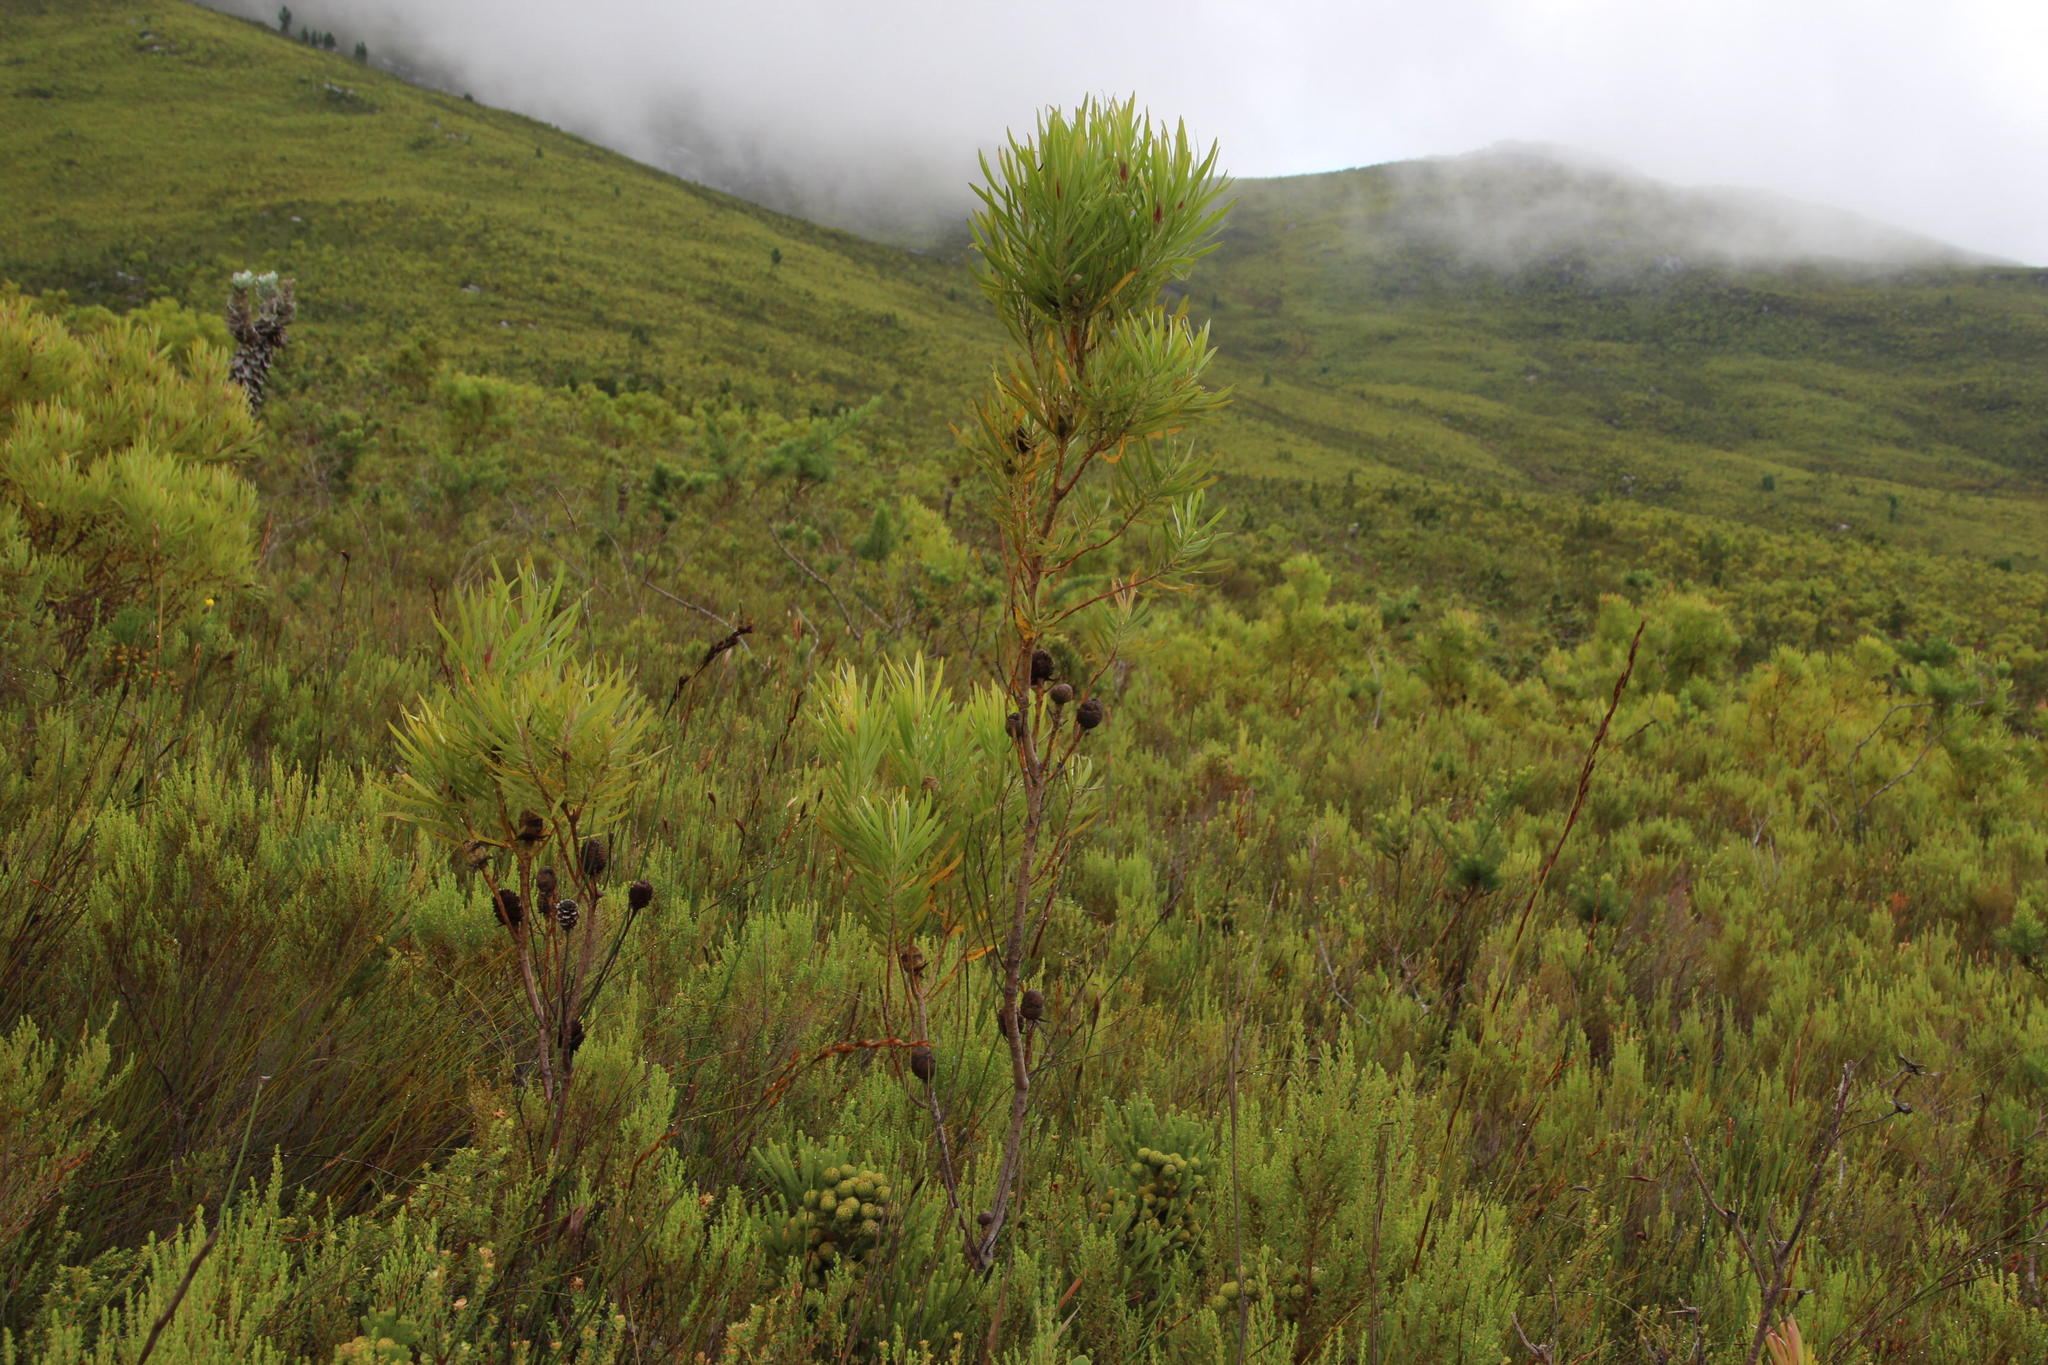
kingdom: Plantae
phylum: Tracheophyta
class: Magnoliopsida
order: Proteales
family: Proteaceae
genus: Leucadendron
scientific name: Leucadendron eucalyptifolium
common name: Gum-leaved conebush
